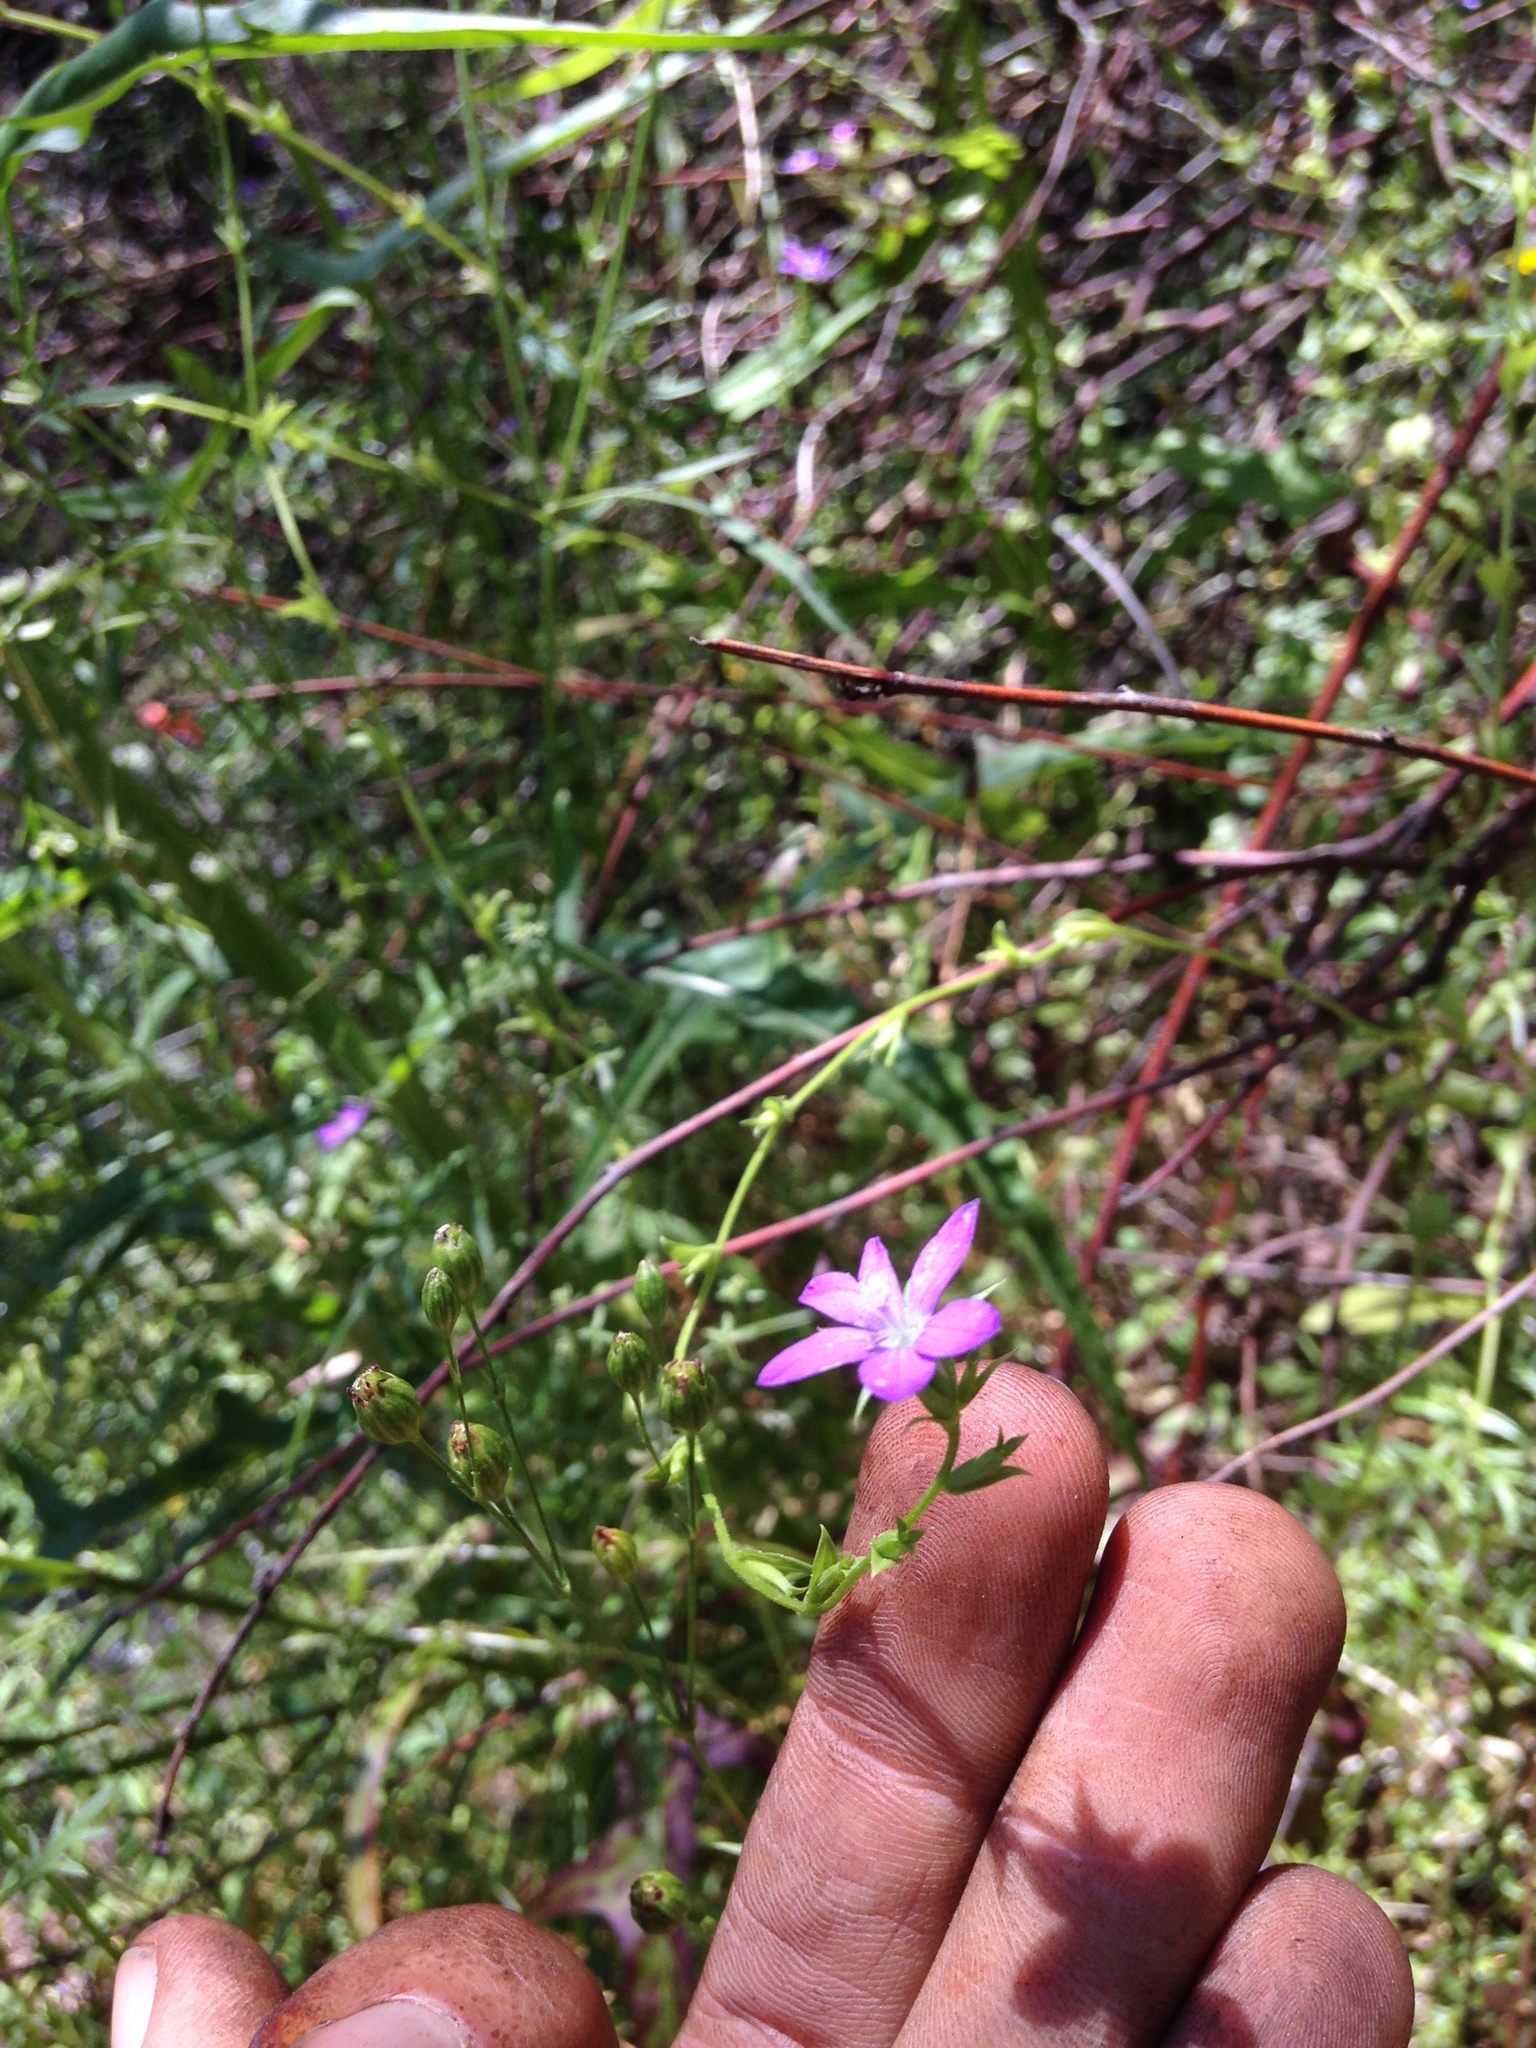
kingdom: Plantae
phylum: Tracheophyta
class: Magnoliopsida
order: Asterales
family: Campanulaceae
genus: Triodanis
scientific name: Triodanis biflora
